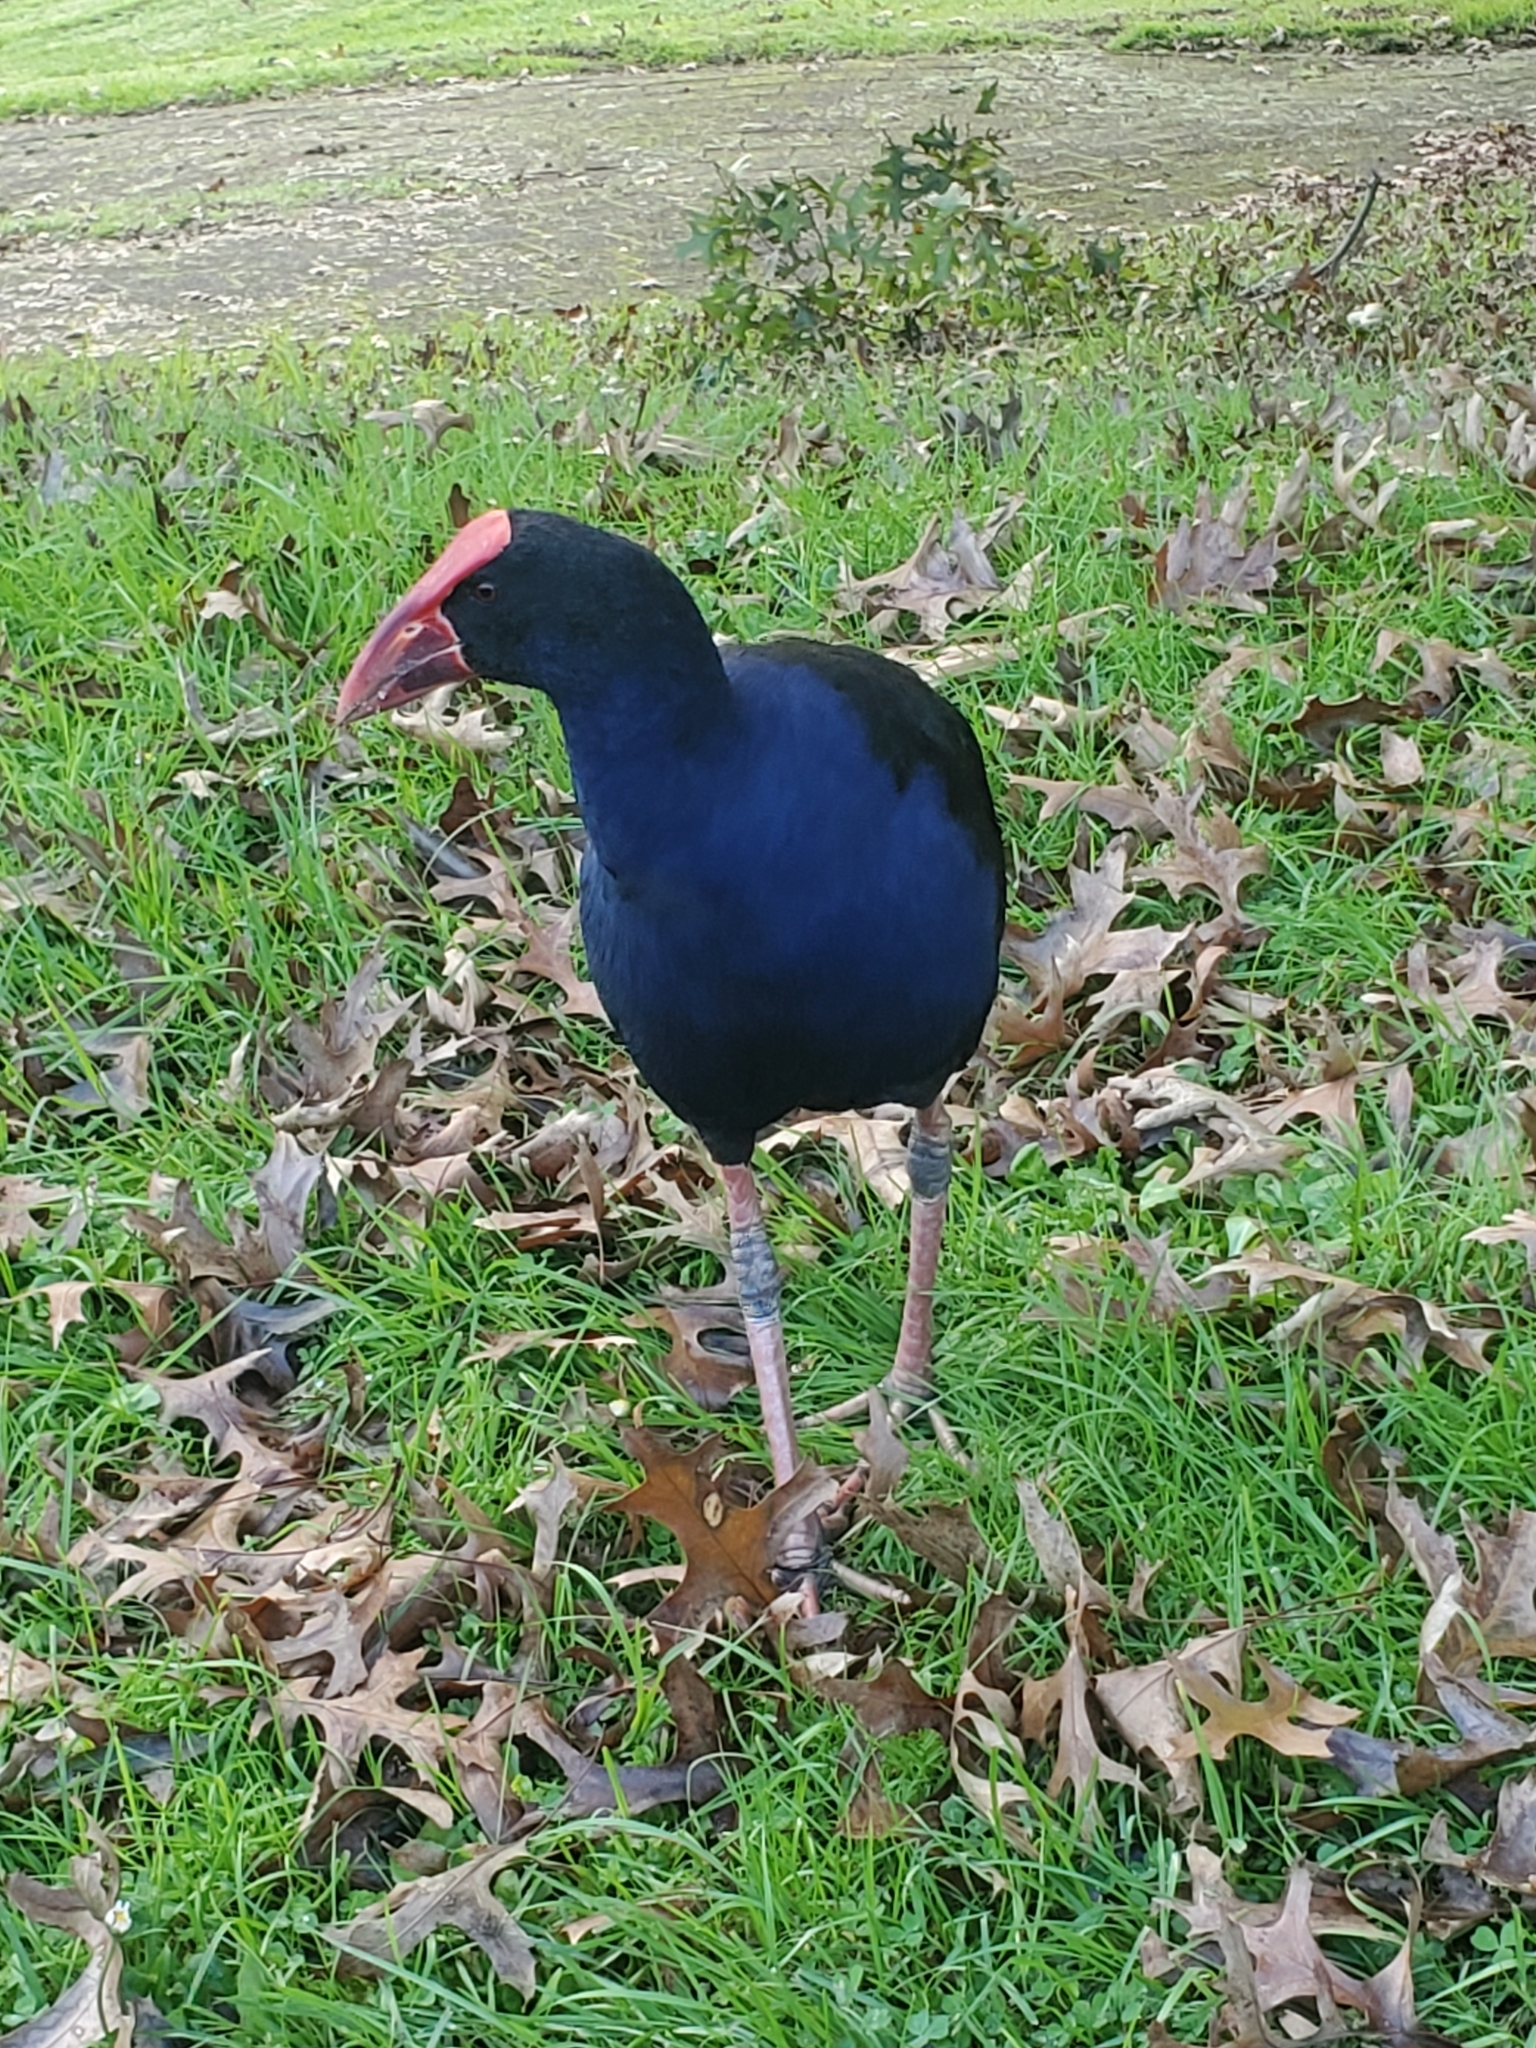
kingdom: Animalia
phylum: Chordata
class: Aves
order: Gruiformes
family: Rallidae
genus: Porphyrio
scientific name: Porphyrio melanotus
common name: Australasian swamphen
